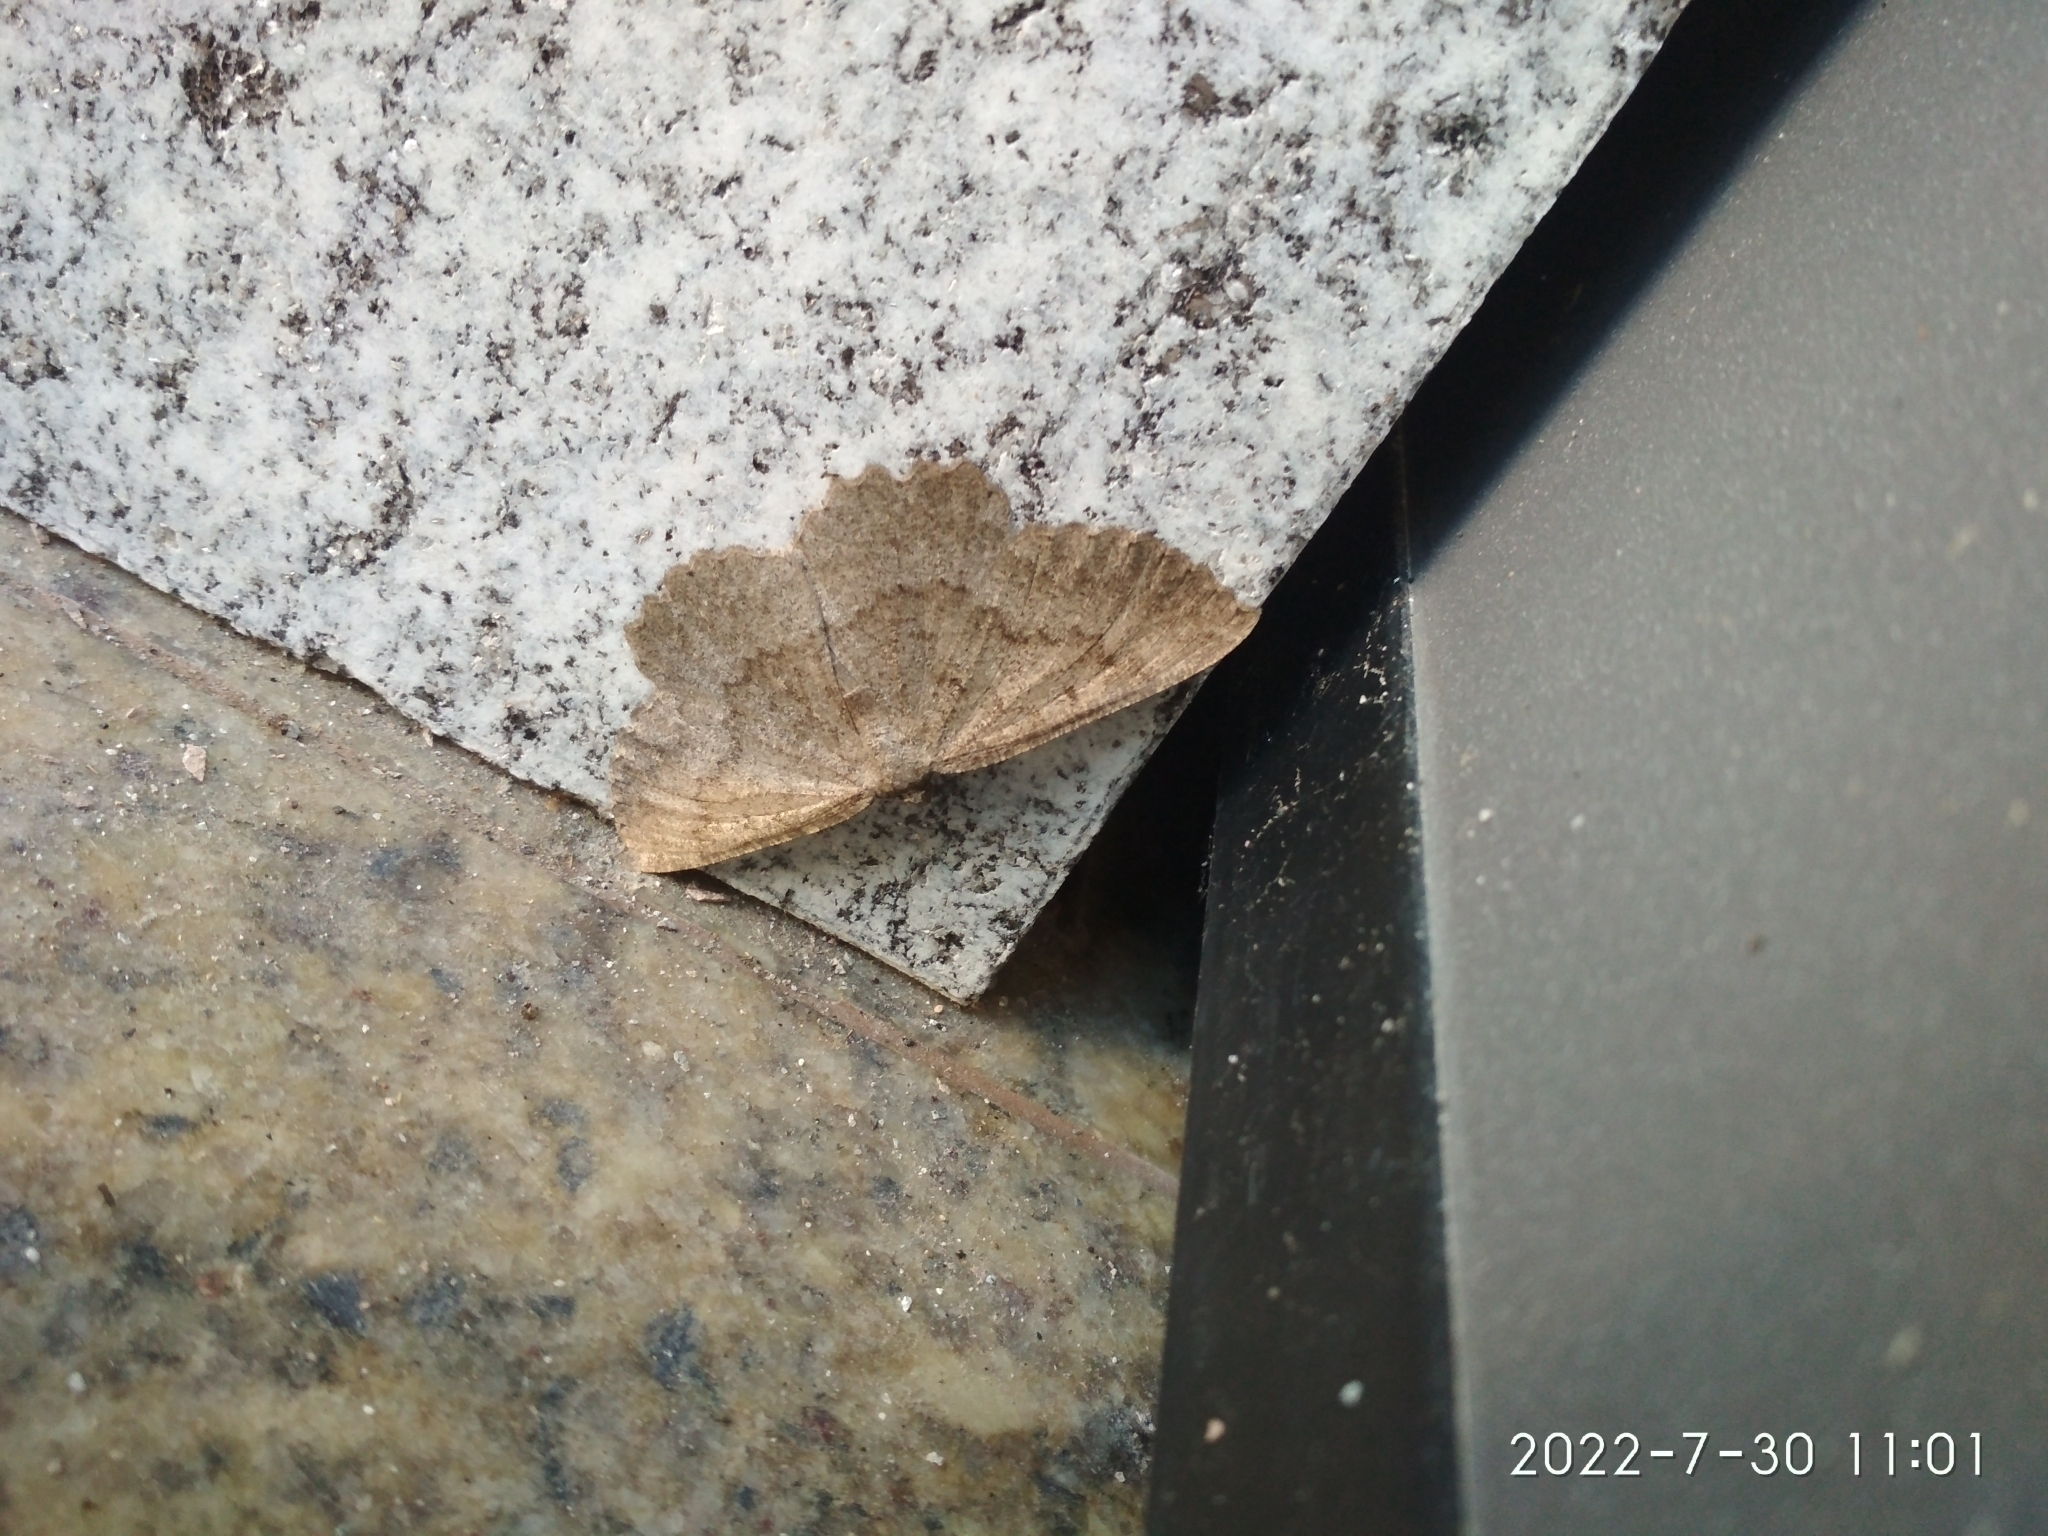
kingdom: Animalia
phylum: Arthropoda
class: Insecta
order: Lepidoptera
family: Geometridae
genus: Gnophos
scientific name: Gnophos furvata
